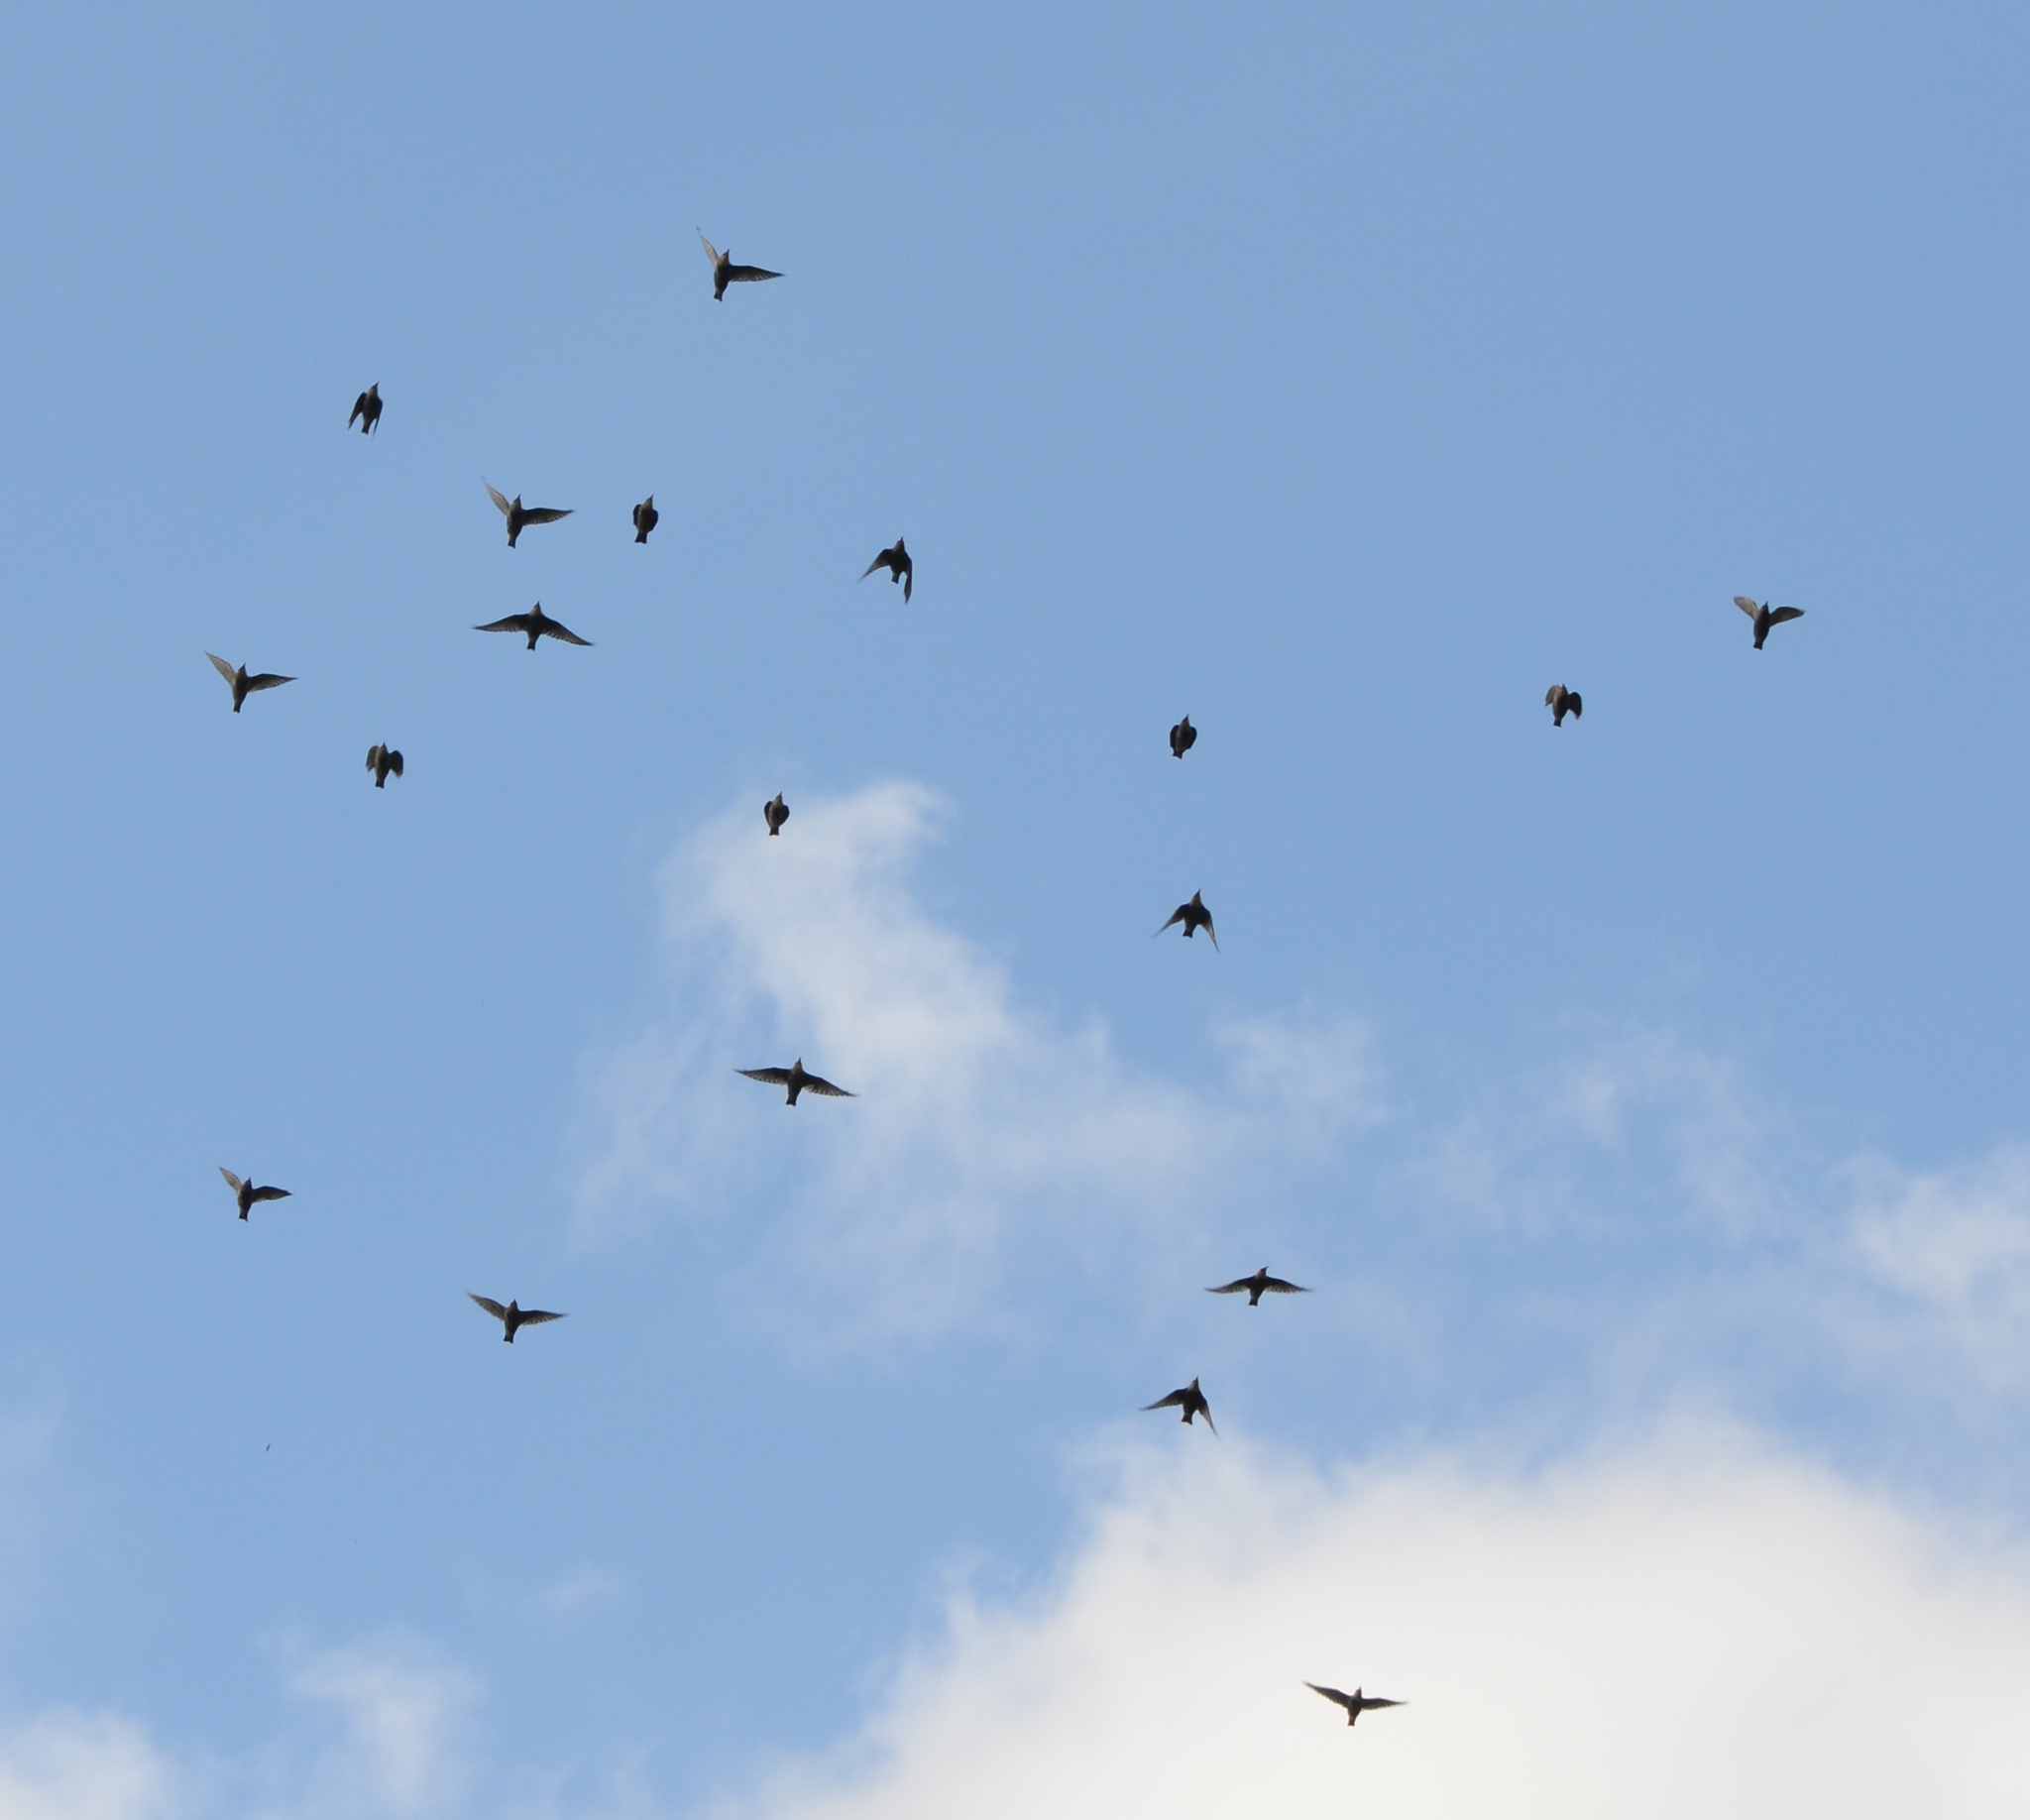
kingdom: Animalia
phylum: Chordata
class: Aves
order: Passeriformes
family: Sturnidae
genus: Sturnus
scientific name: Sturnus vulgaris
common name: Common starling
